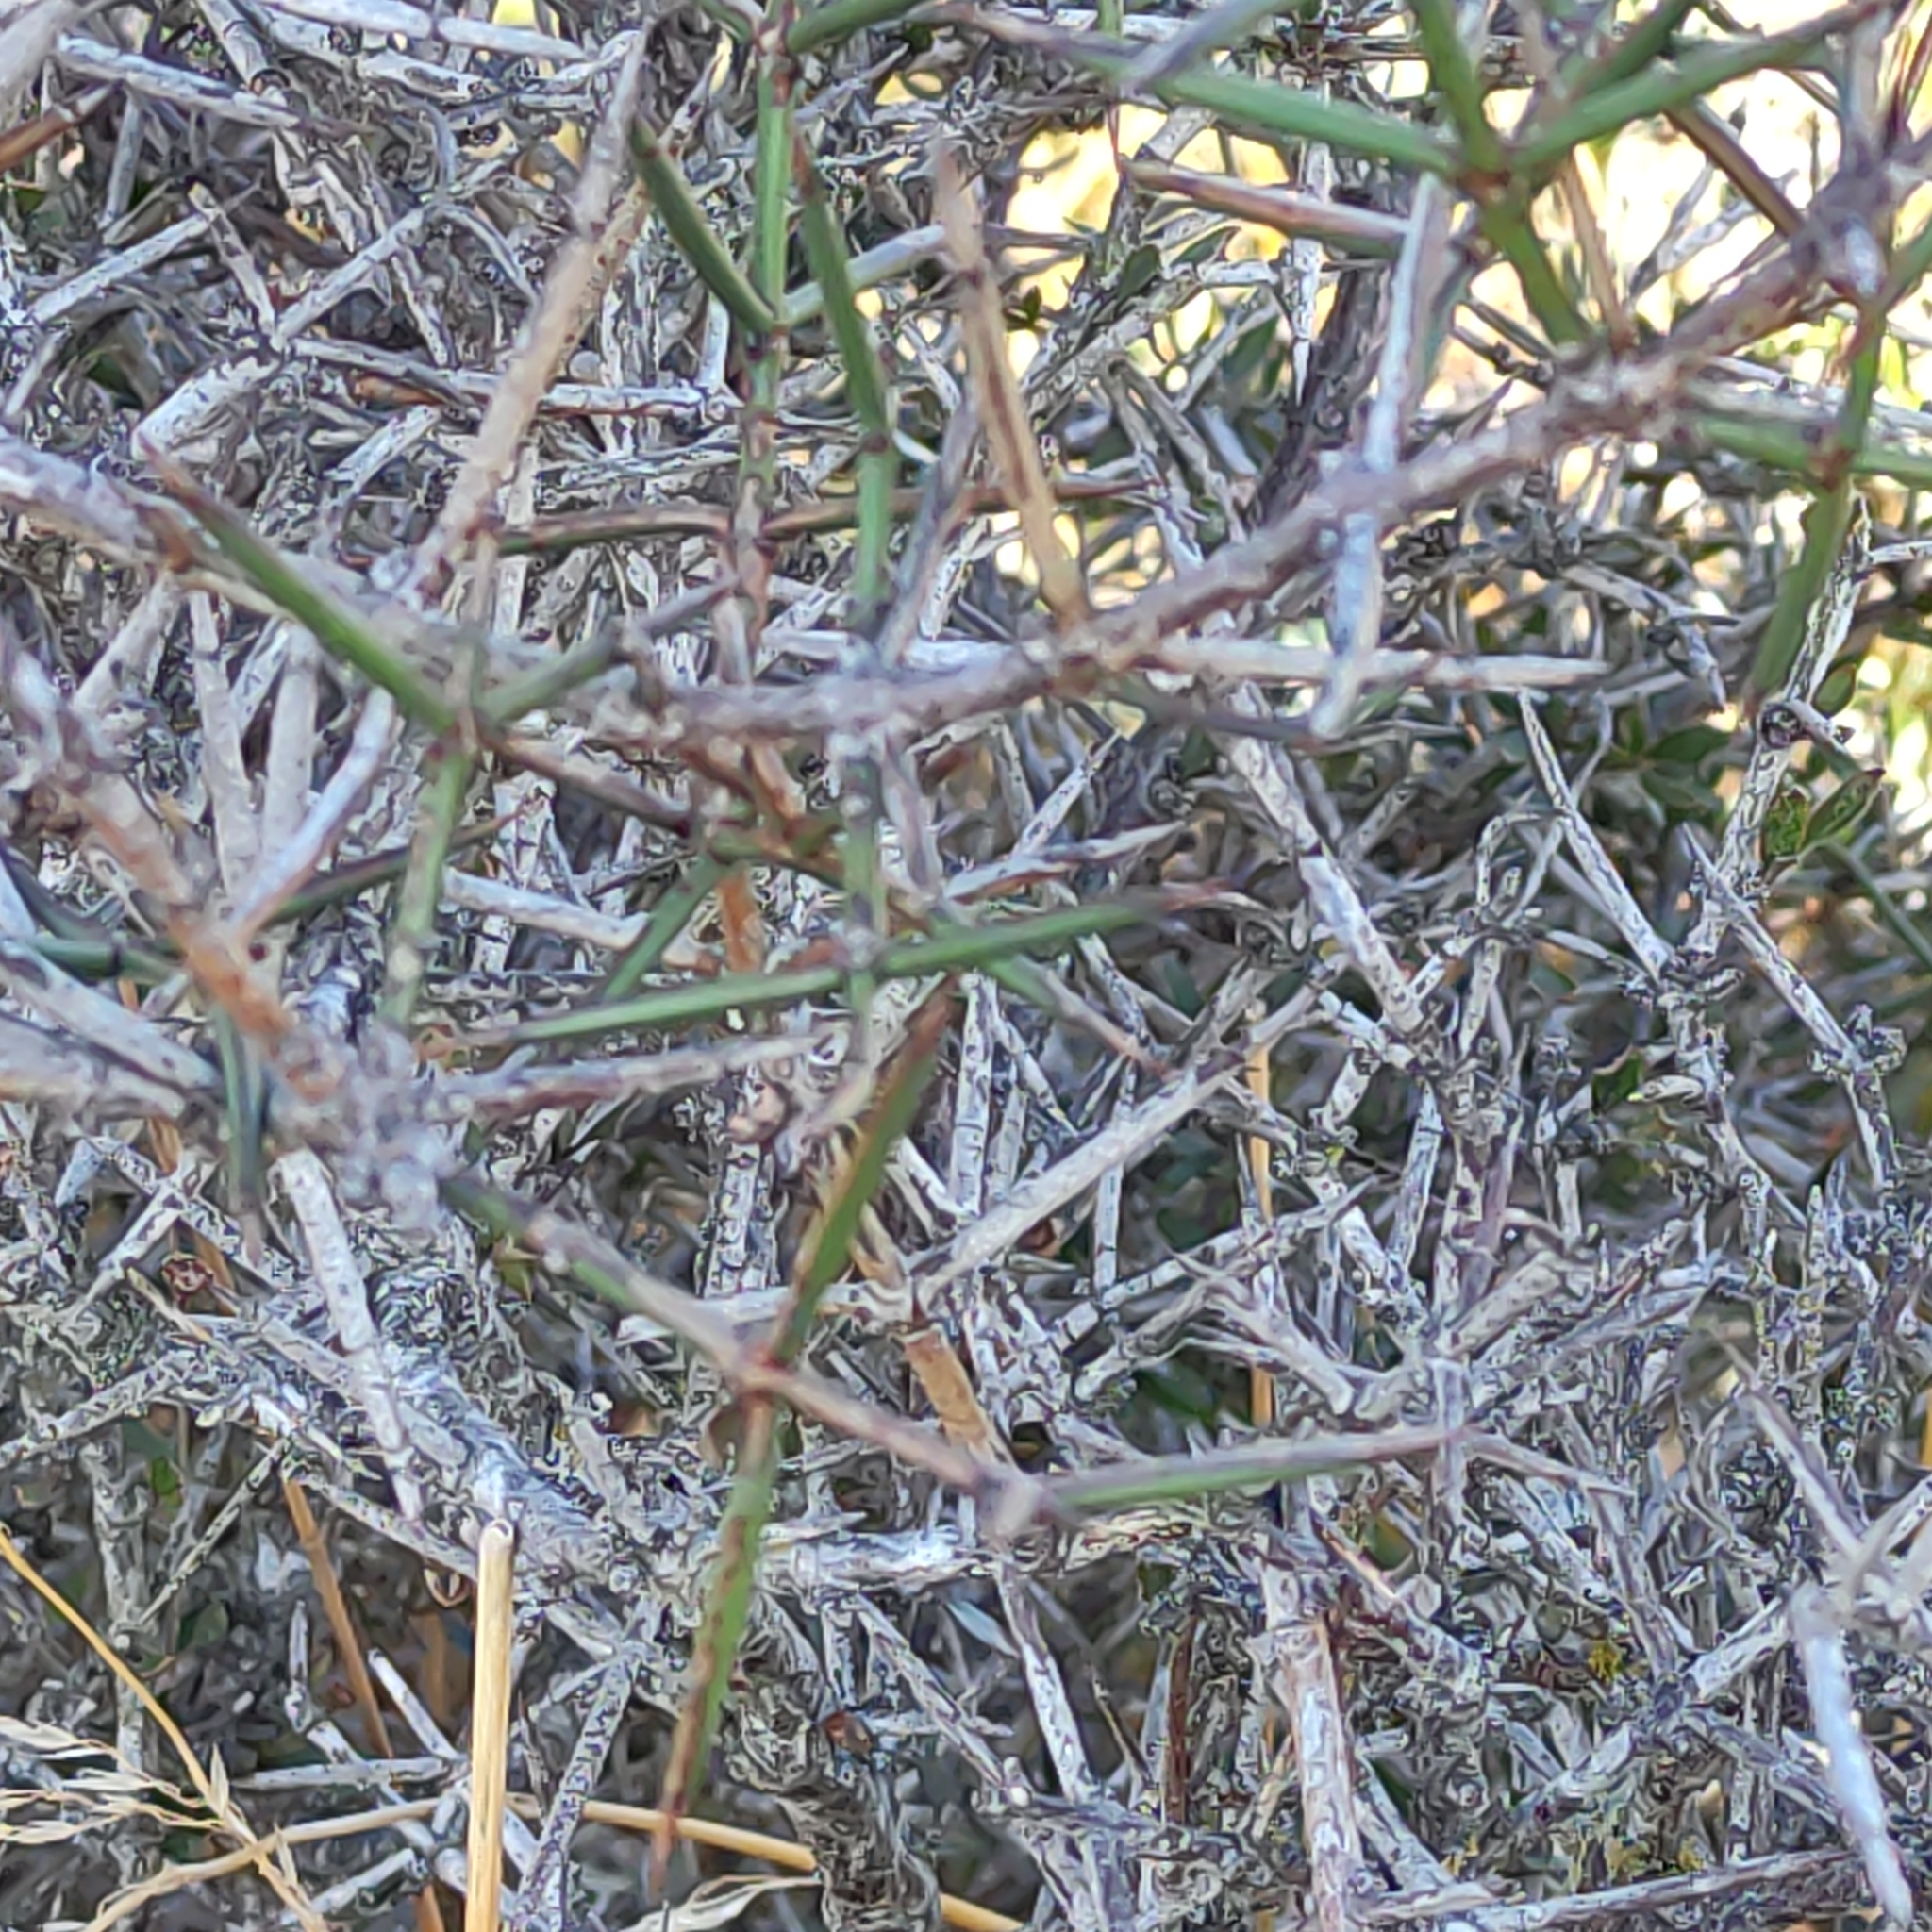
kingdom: Plantae
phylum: Tracheophyta
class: Magnoliopsida
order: Rosales
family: Rhamnaceae
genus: Discaria
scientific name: Discaria toumatou
